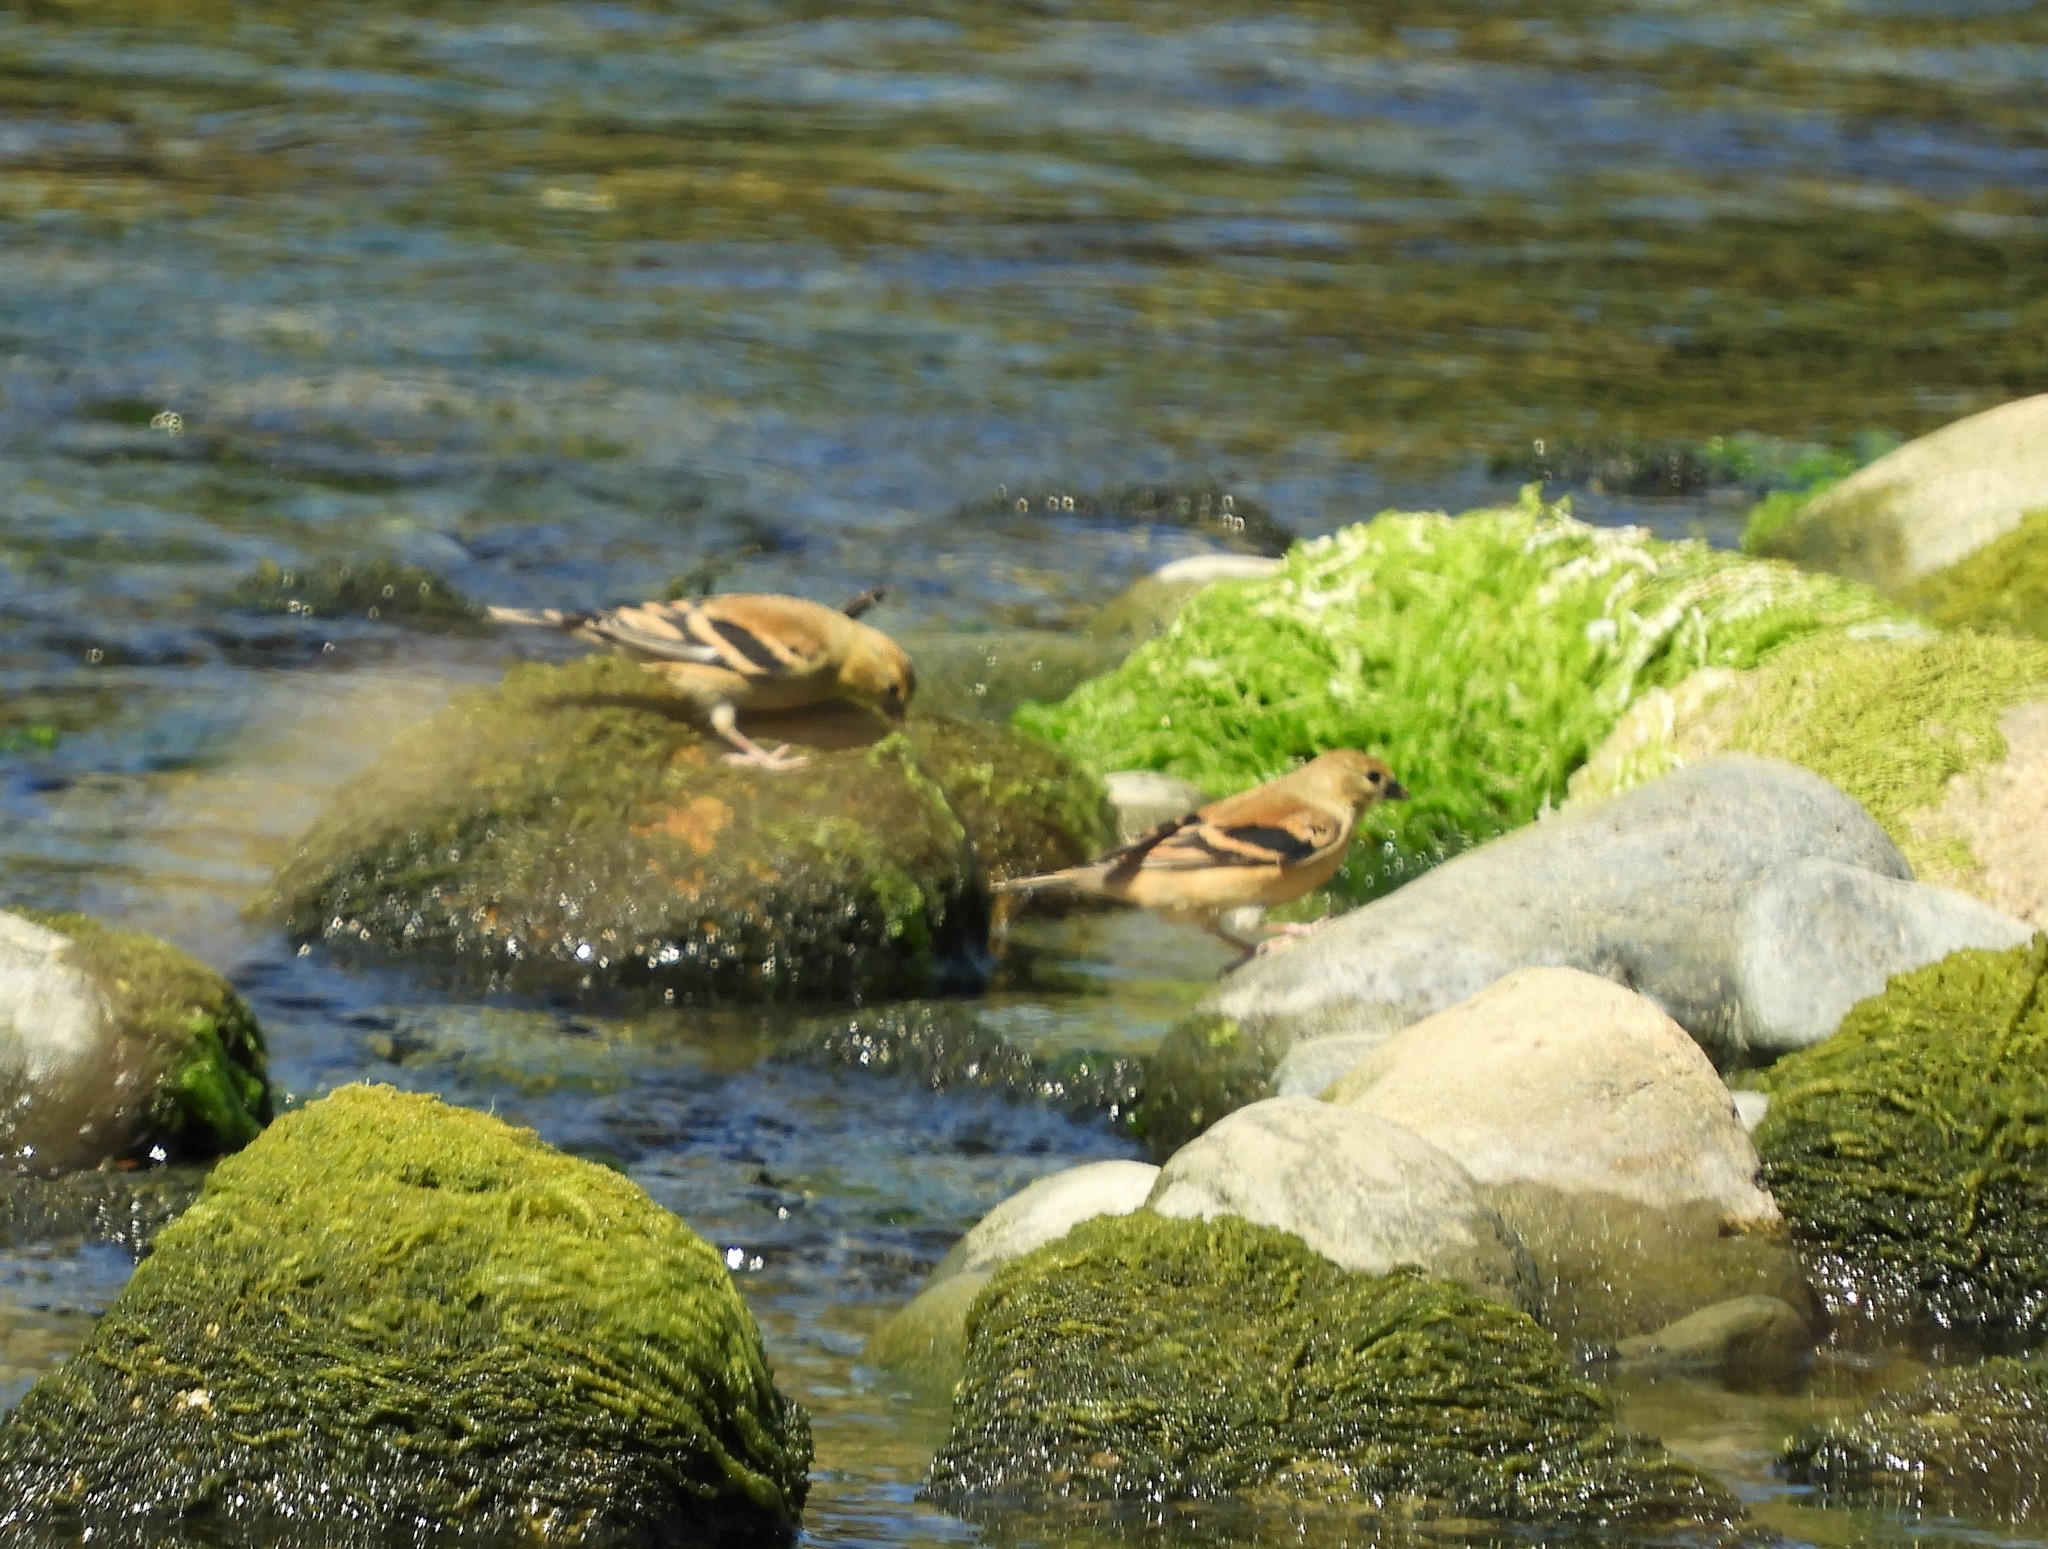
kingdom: Animalia
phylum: Chordata
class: Aves
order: Passeriformes
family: Fringillidae
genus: Spinus
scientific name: Spinus tristis
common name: American goldfinch
